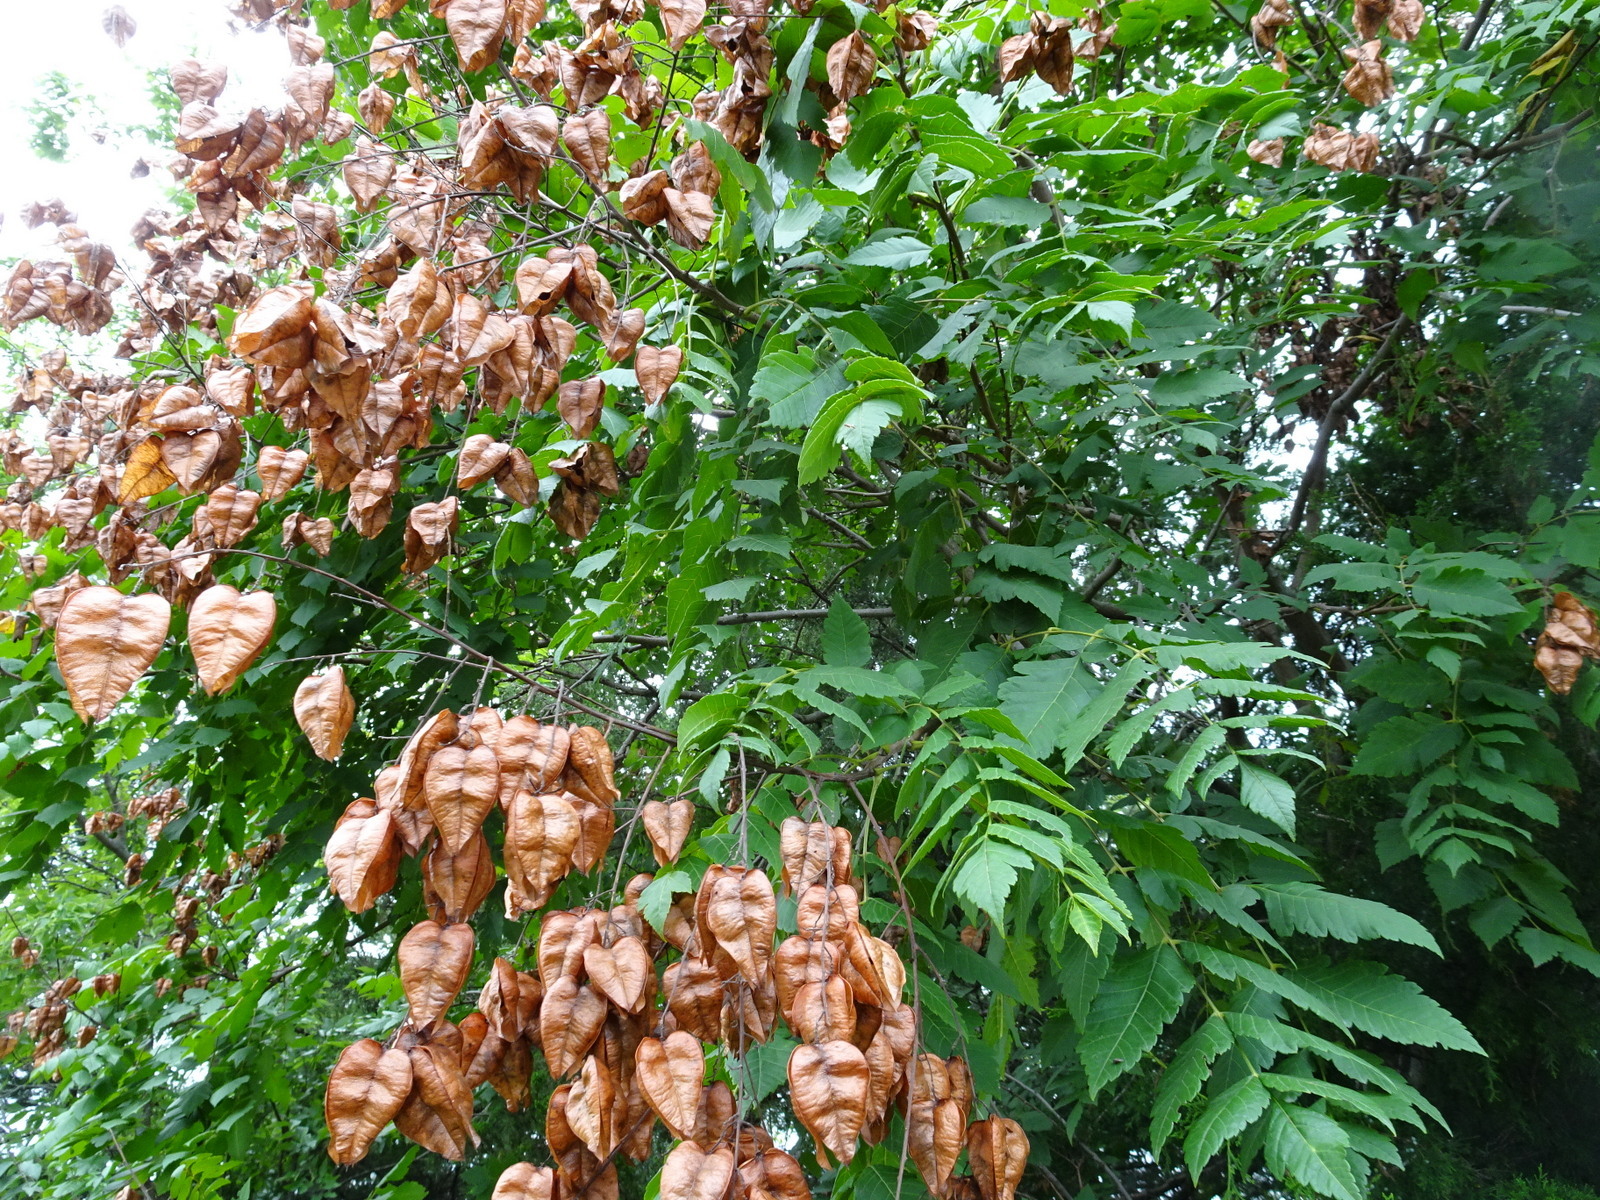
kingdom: Plantae
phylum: Tracheophyta
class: Magnoliopsida
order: Sapindales
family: Sapindaceae
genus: Koelreuteria
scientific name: Koelreuteria paniculata
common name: Pride-of-india
